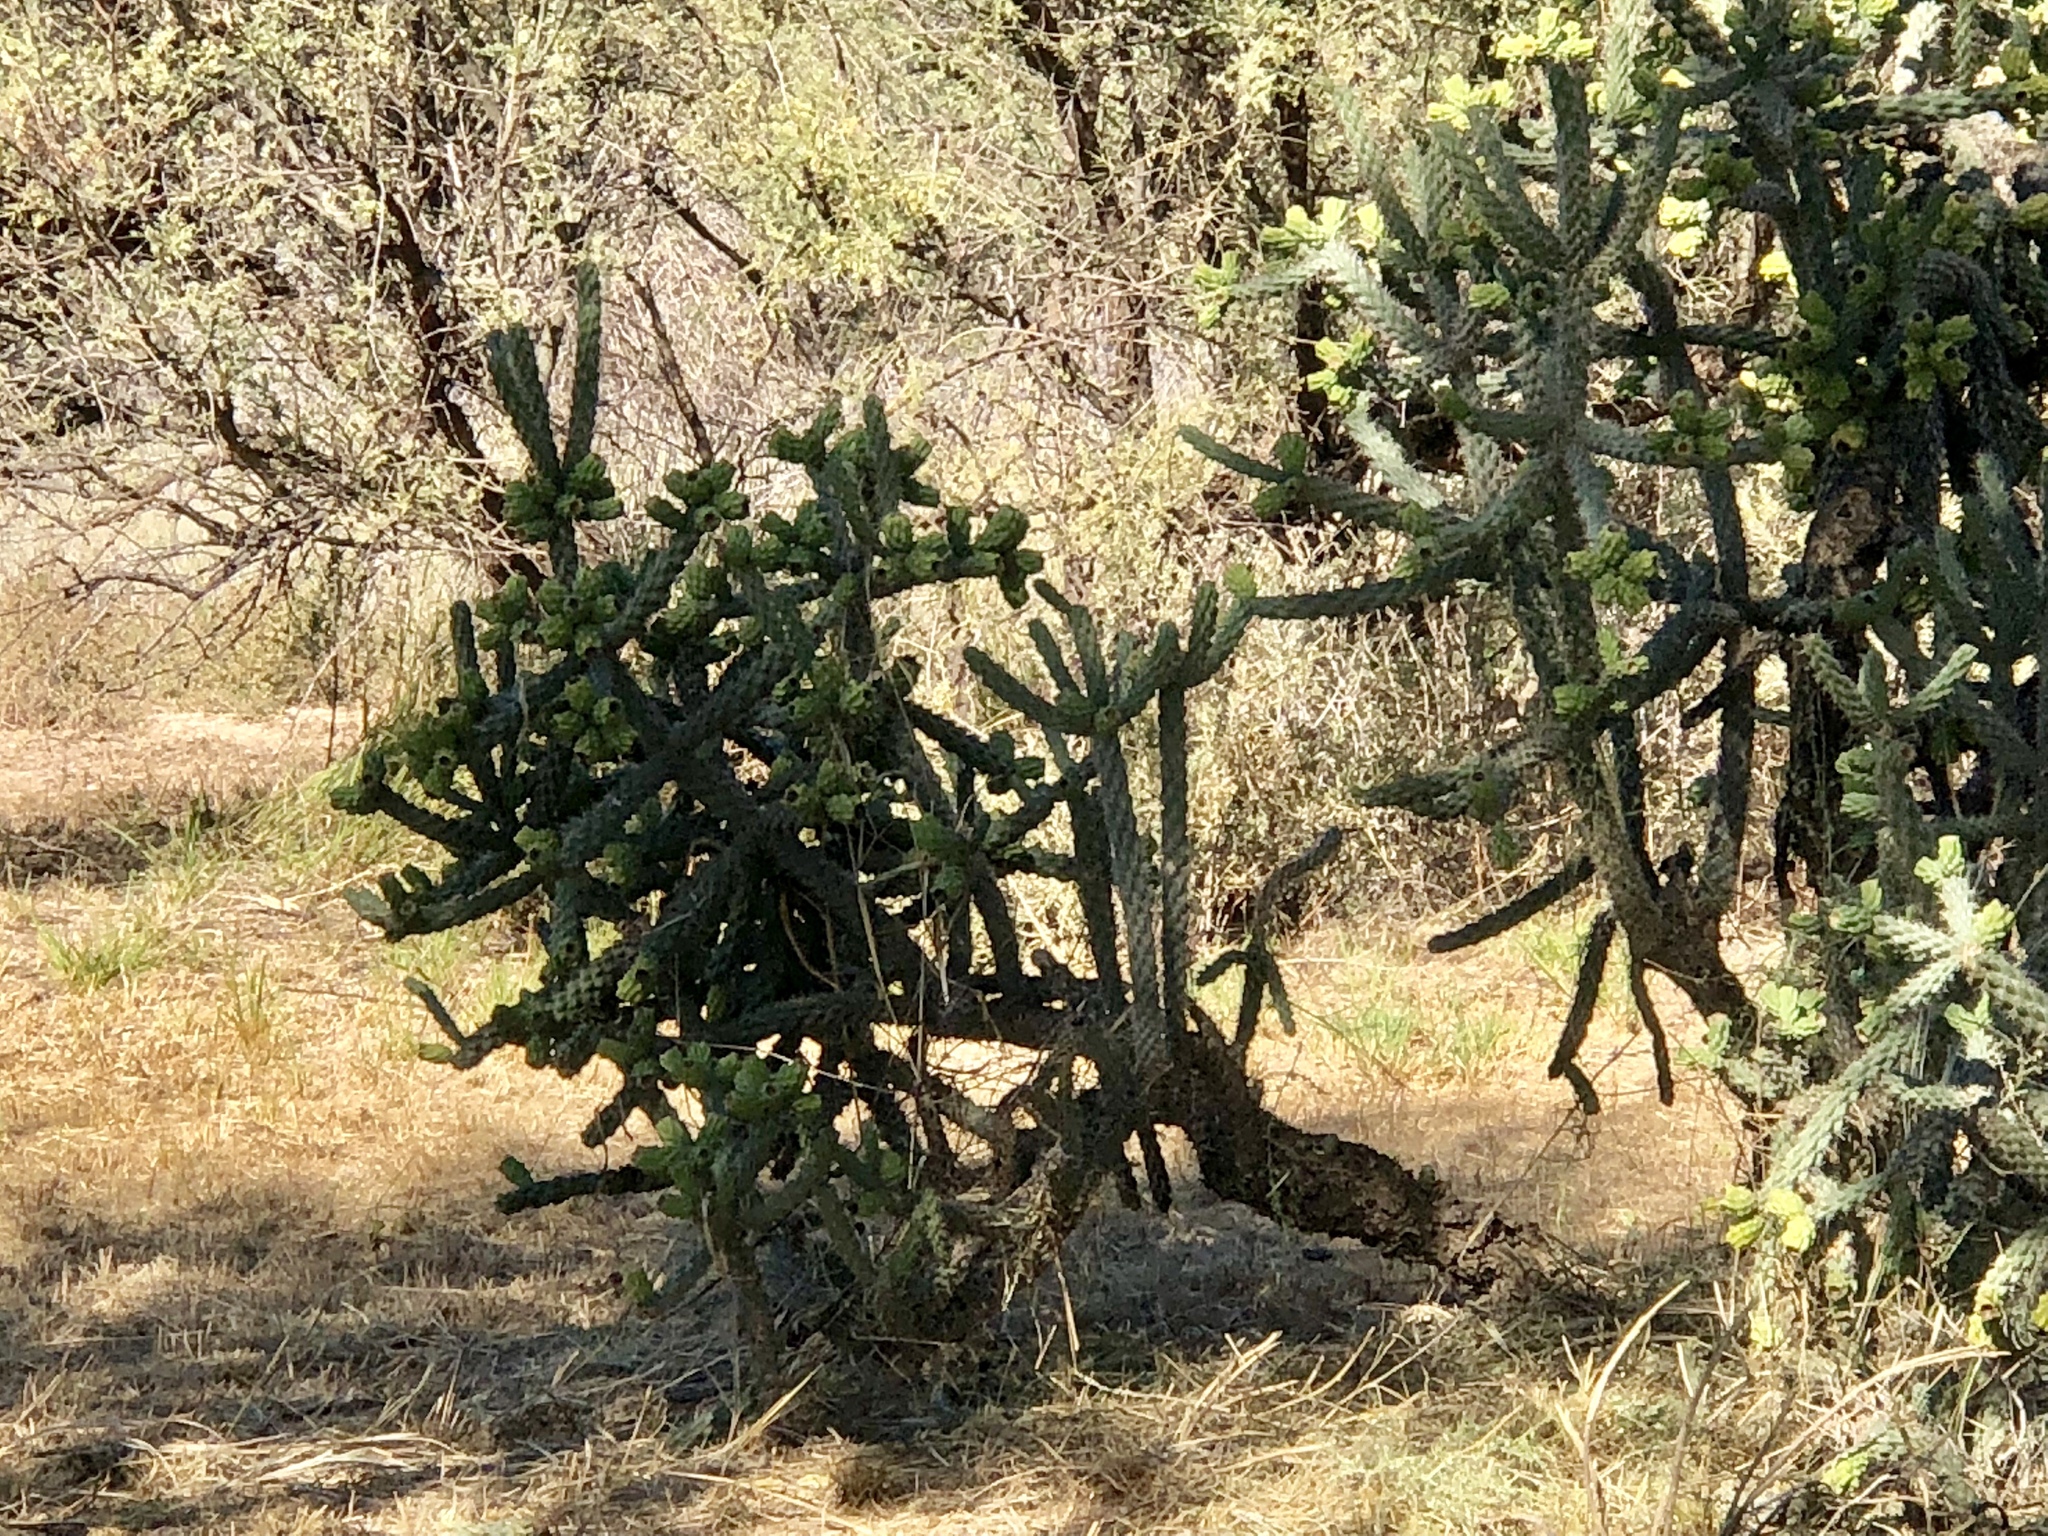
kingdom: Plantae
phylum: Tracheophyta
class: Magnoliopsida
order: Caryophyllales
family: Cactaceae
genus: Cylindropuntia
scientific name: Cylindropuntia imbricata
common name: Candelabrum cactus
